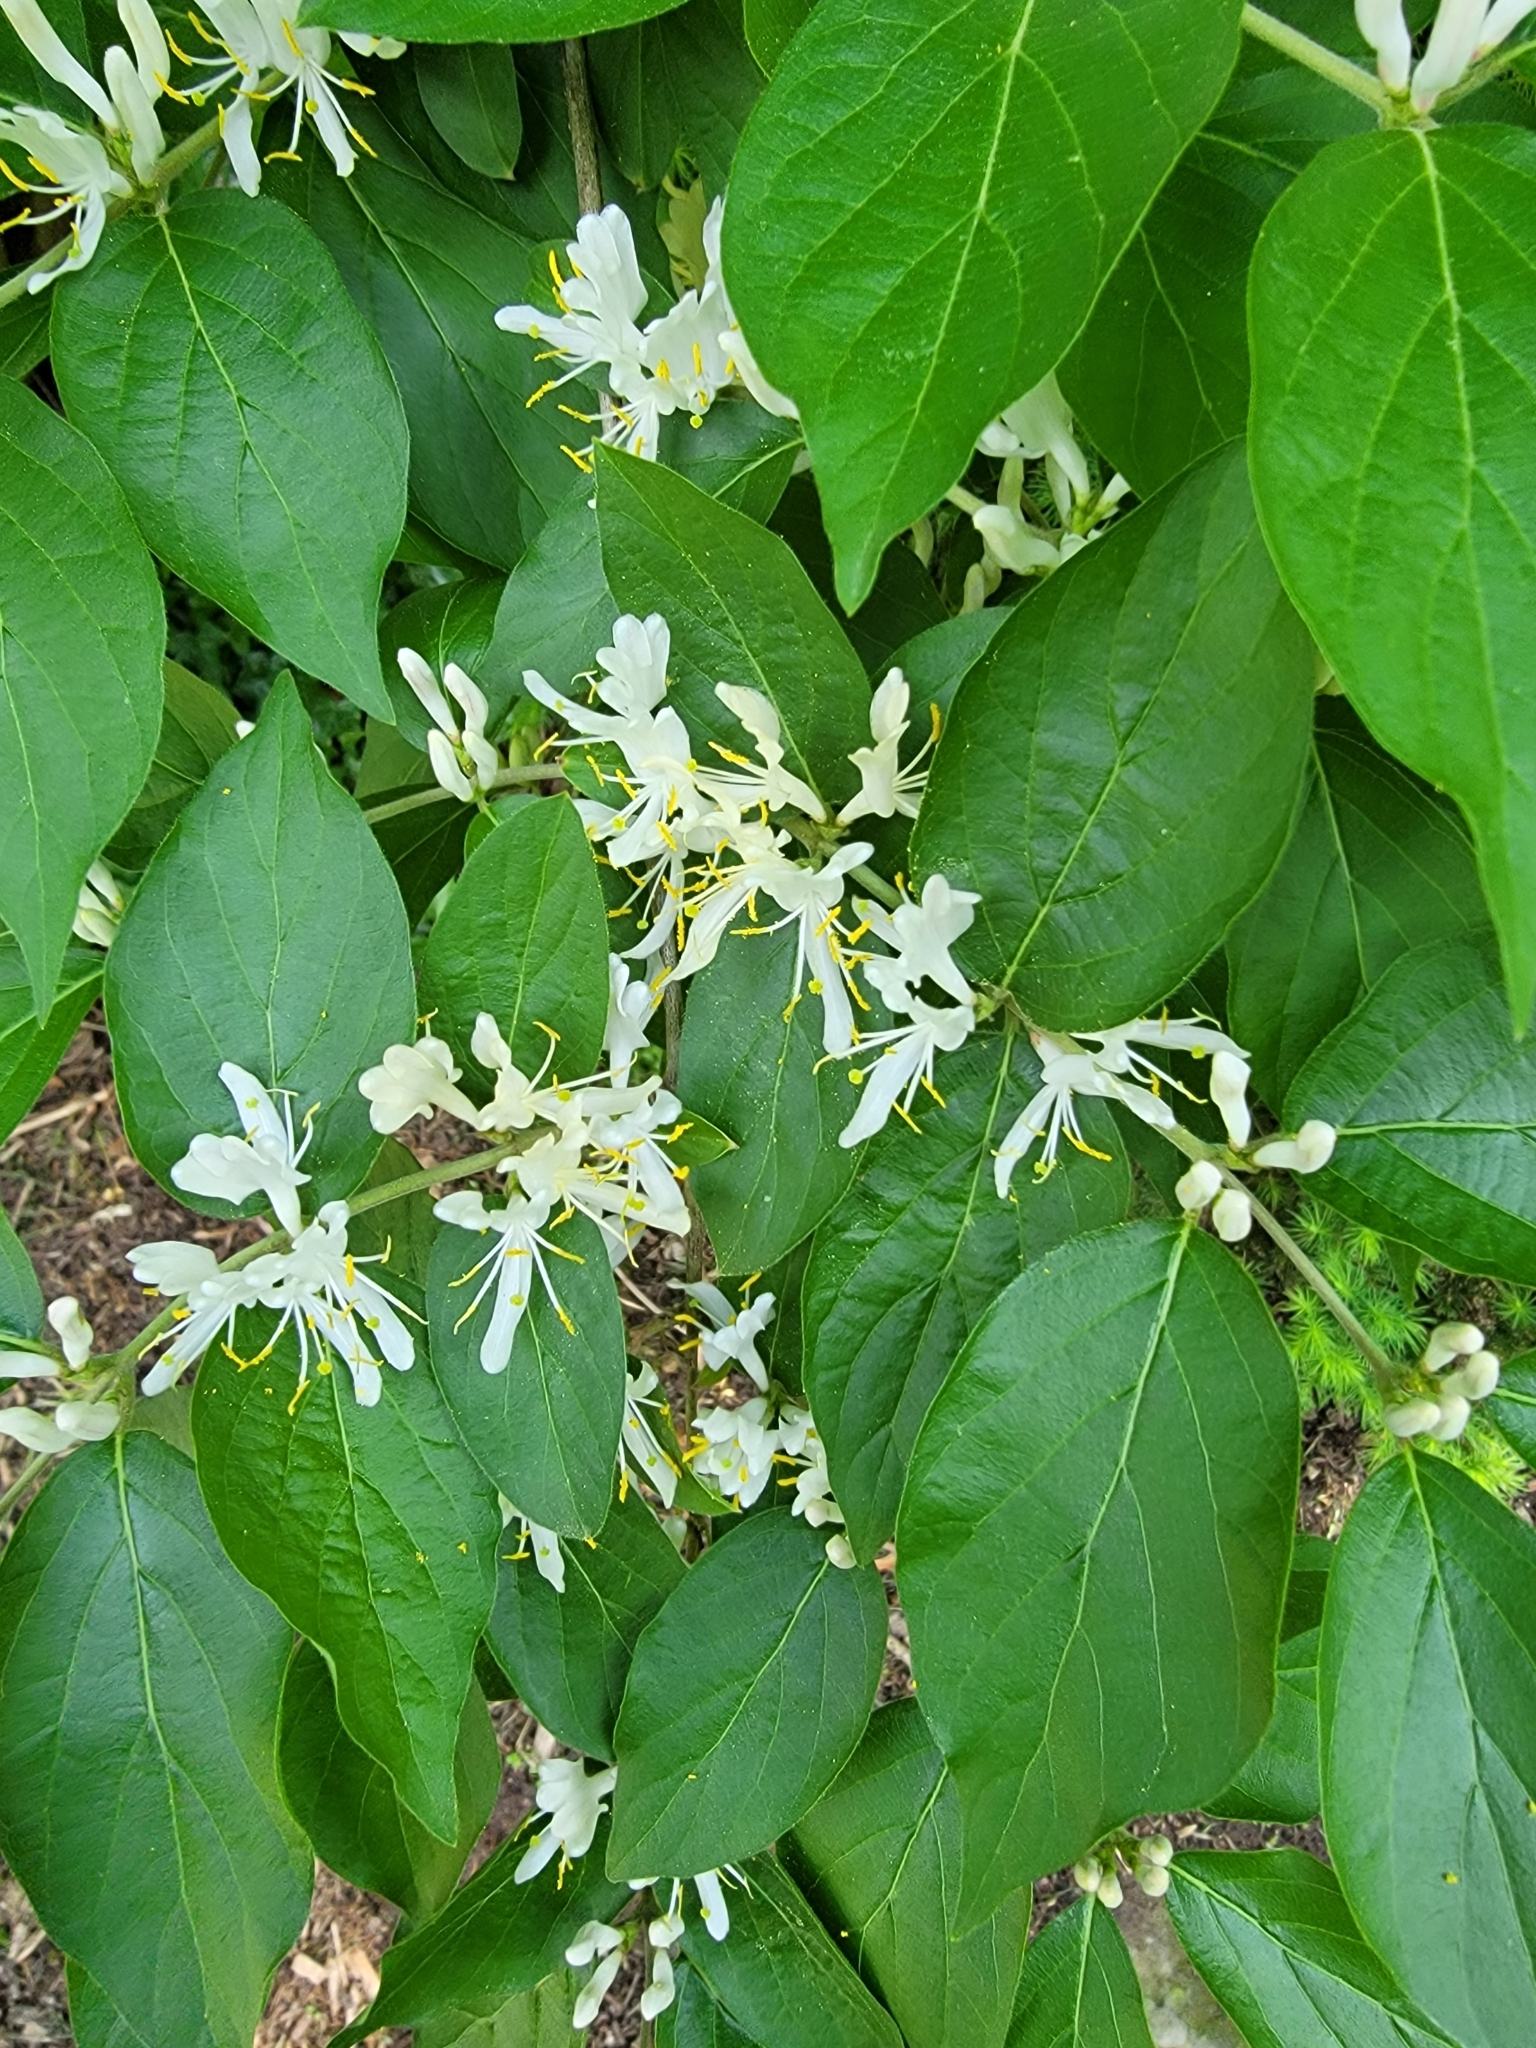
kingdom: Plantae
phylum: Tracheophyta
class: Magnoliopsida
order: Dipsacales
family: Caprifoliaceae
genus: Lonicera
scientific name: Lonicera maackii
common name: Amur honeysuckle
